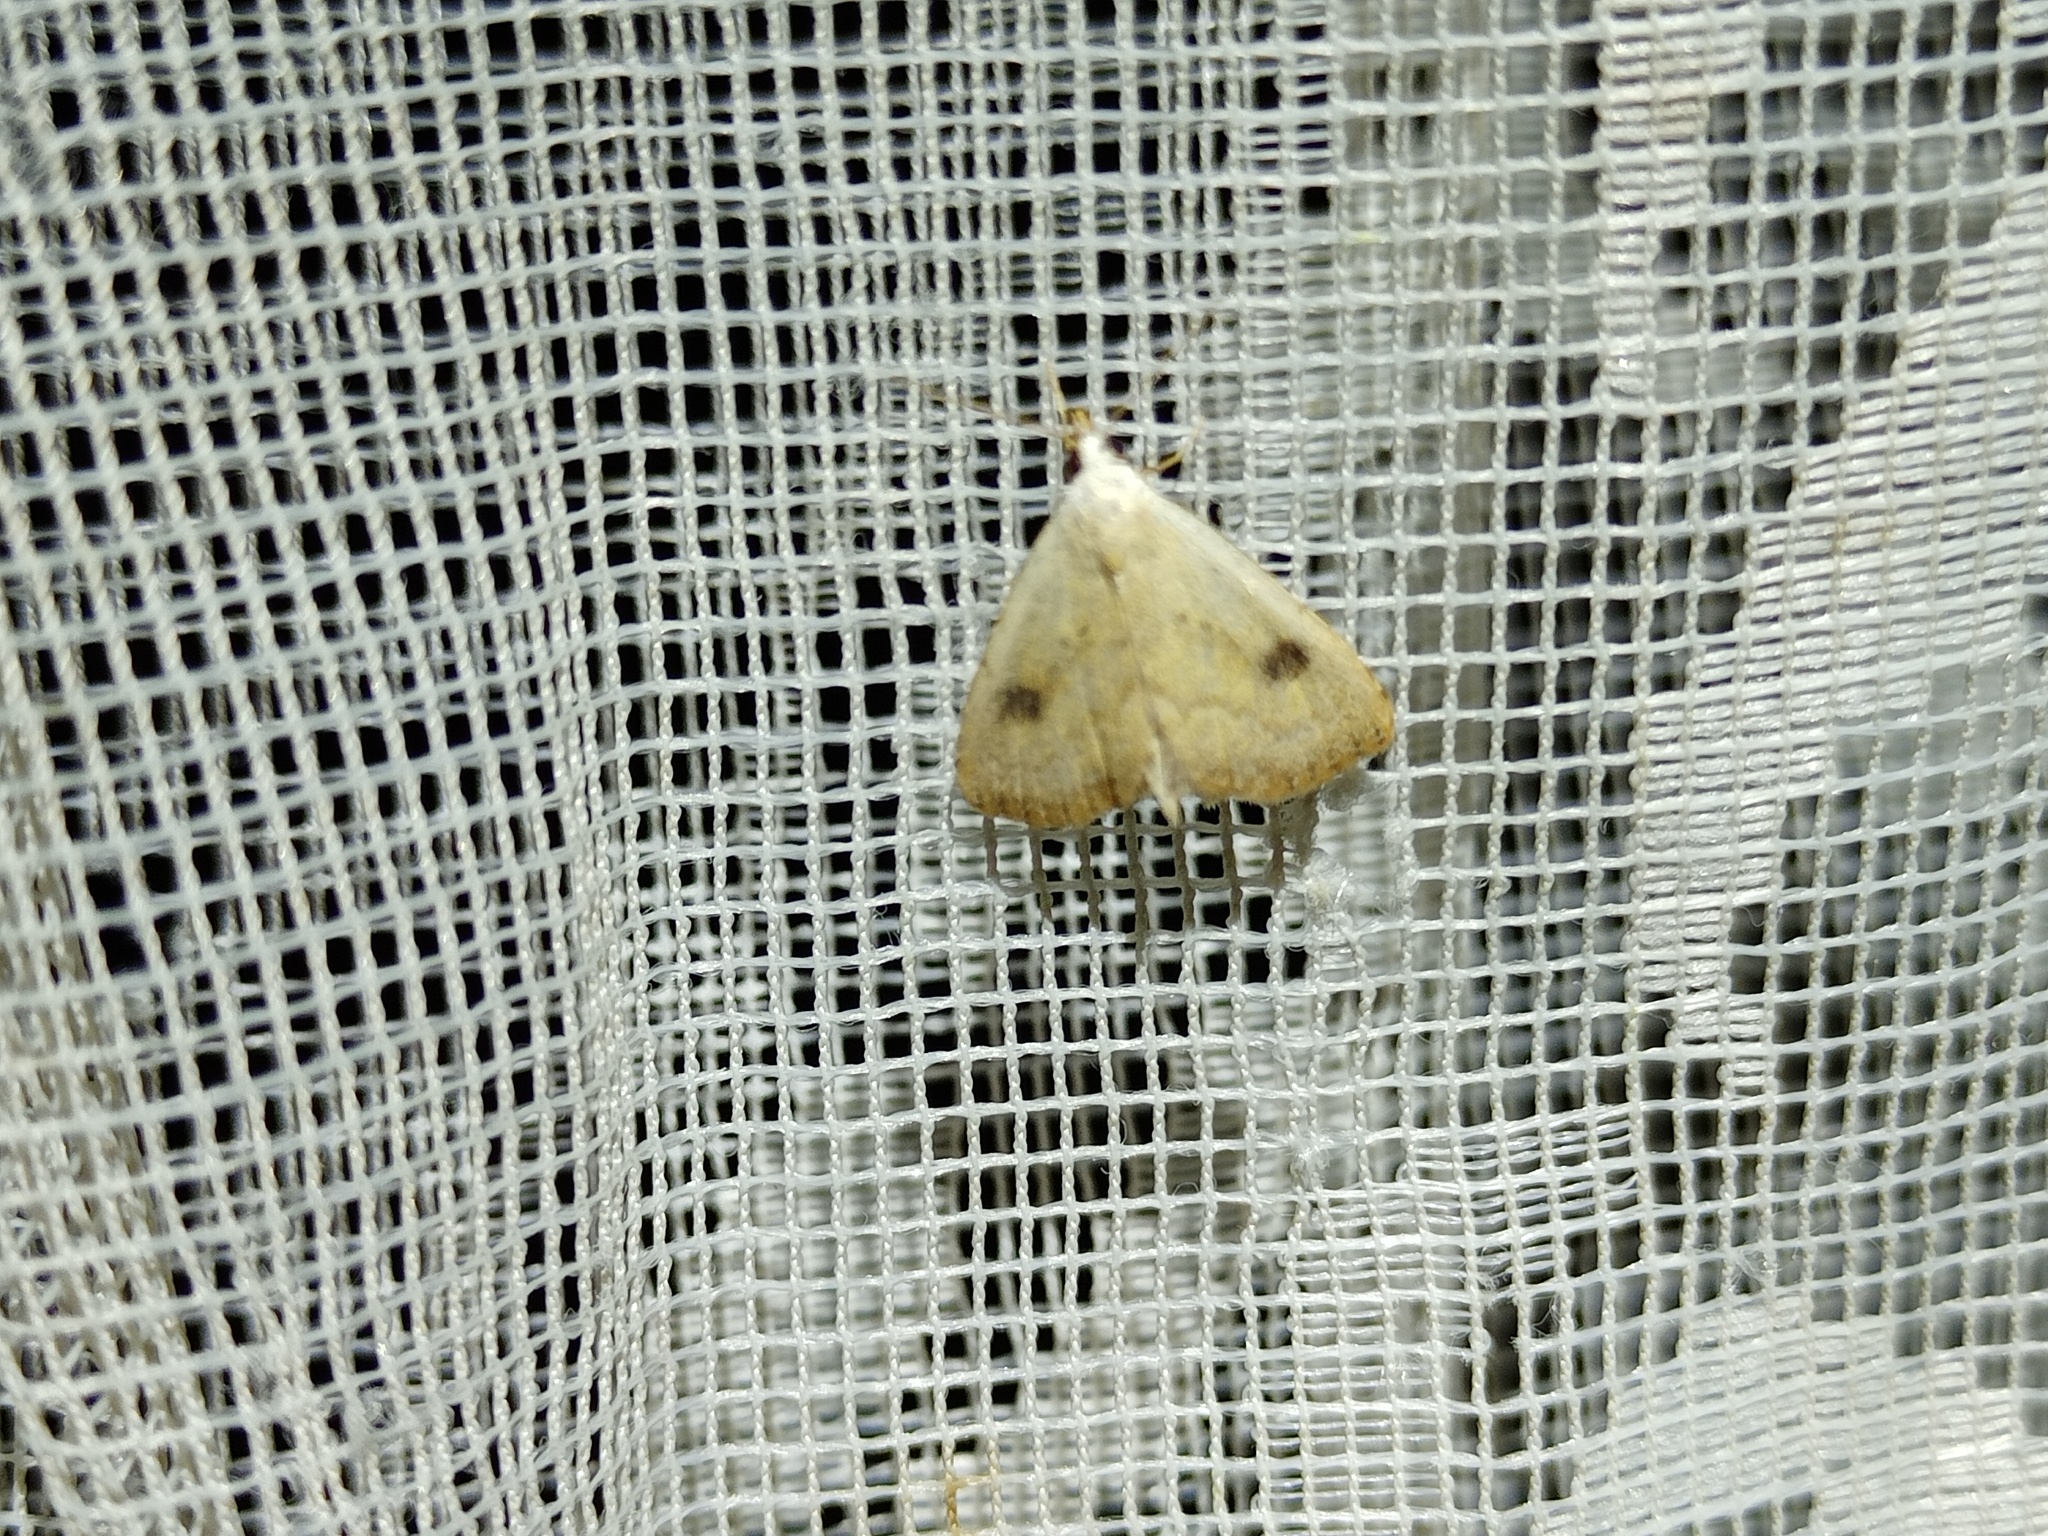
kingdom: Animalia
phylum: Arthropoda
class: Insecta
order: Lepidoptera
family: Erebidae
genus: Rivula
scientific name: Rivula sericealis
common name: Straw dot
